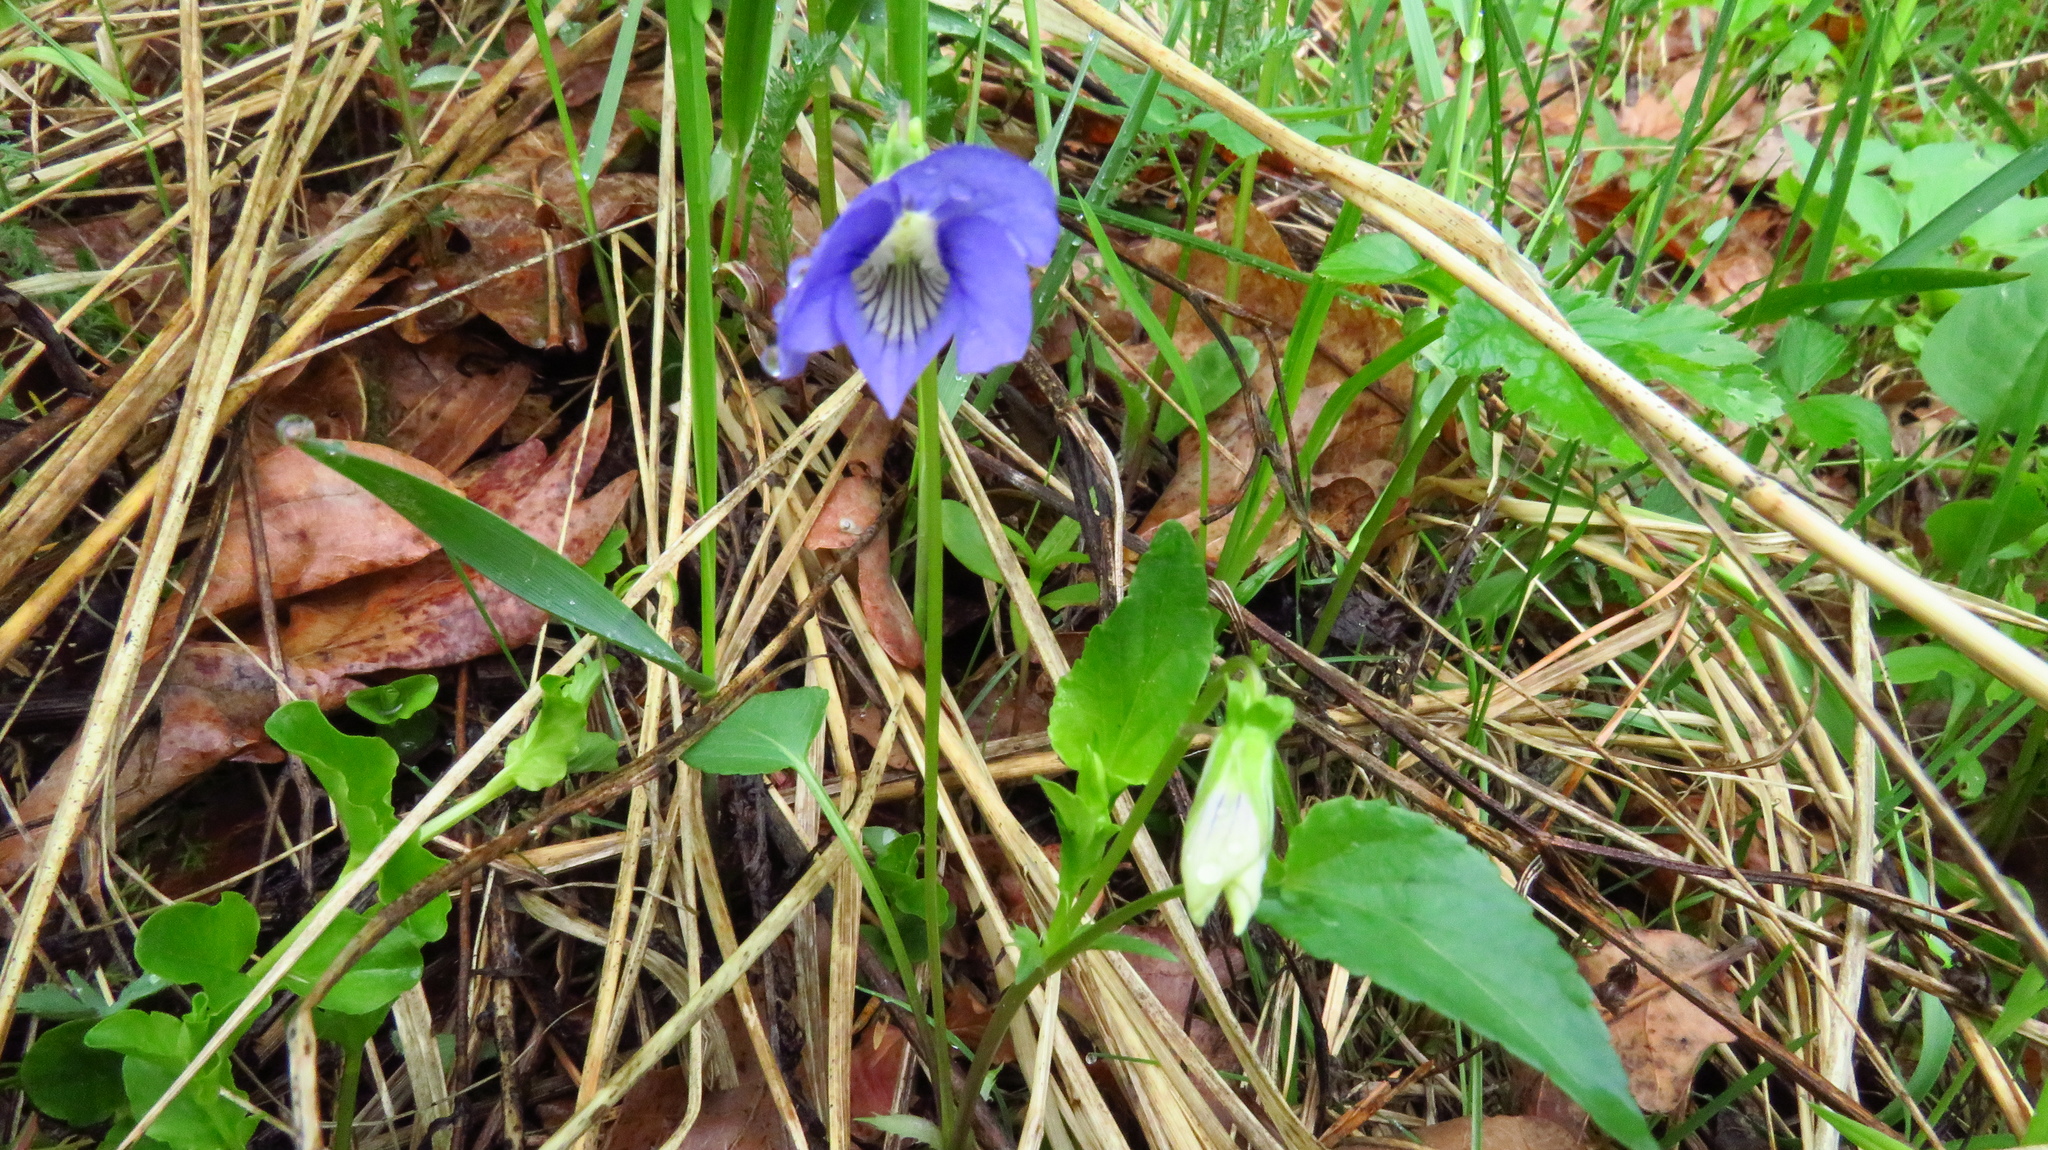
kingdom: Plantae
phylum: Tracheophyta
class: Magnoliopsida
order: Malpighiales
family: Violaceae
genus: Viola
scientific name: Viola
